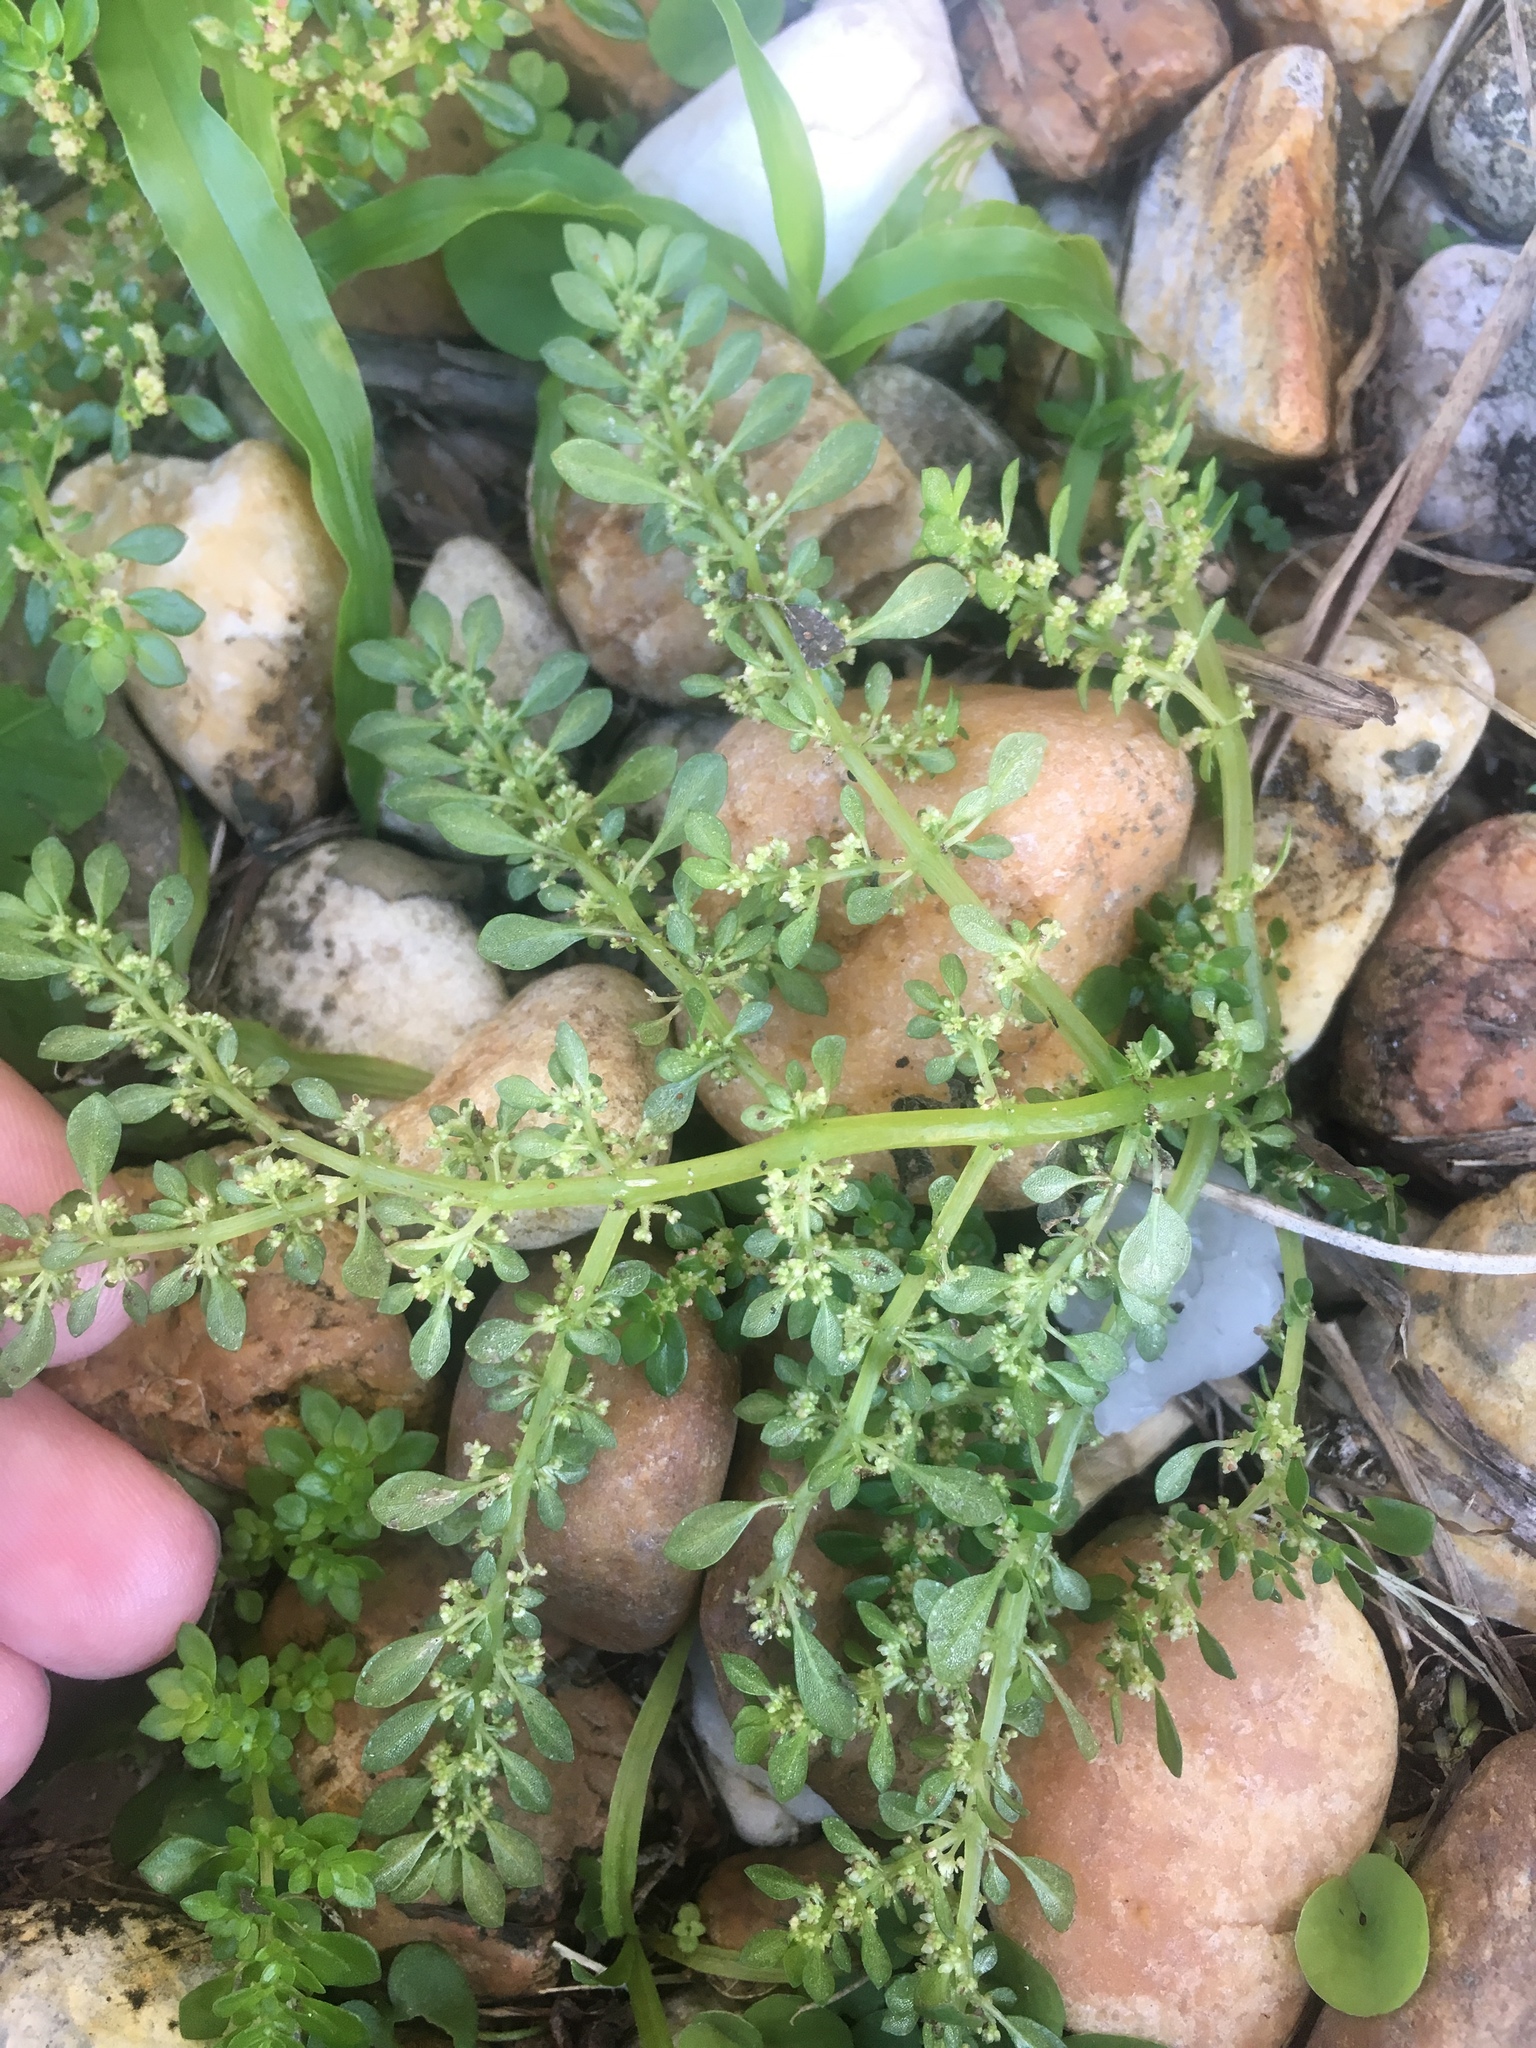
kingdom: Plantae
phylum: Tracheophyta
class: Magnoliopsida
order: Rosales
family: Urticaceae
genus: Pilea
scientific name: Pilea microphylla
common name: Artillery-plant
